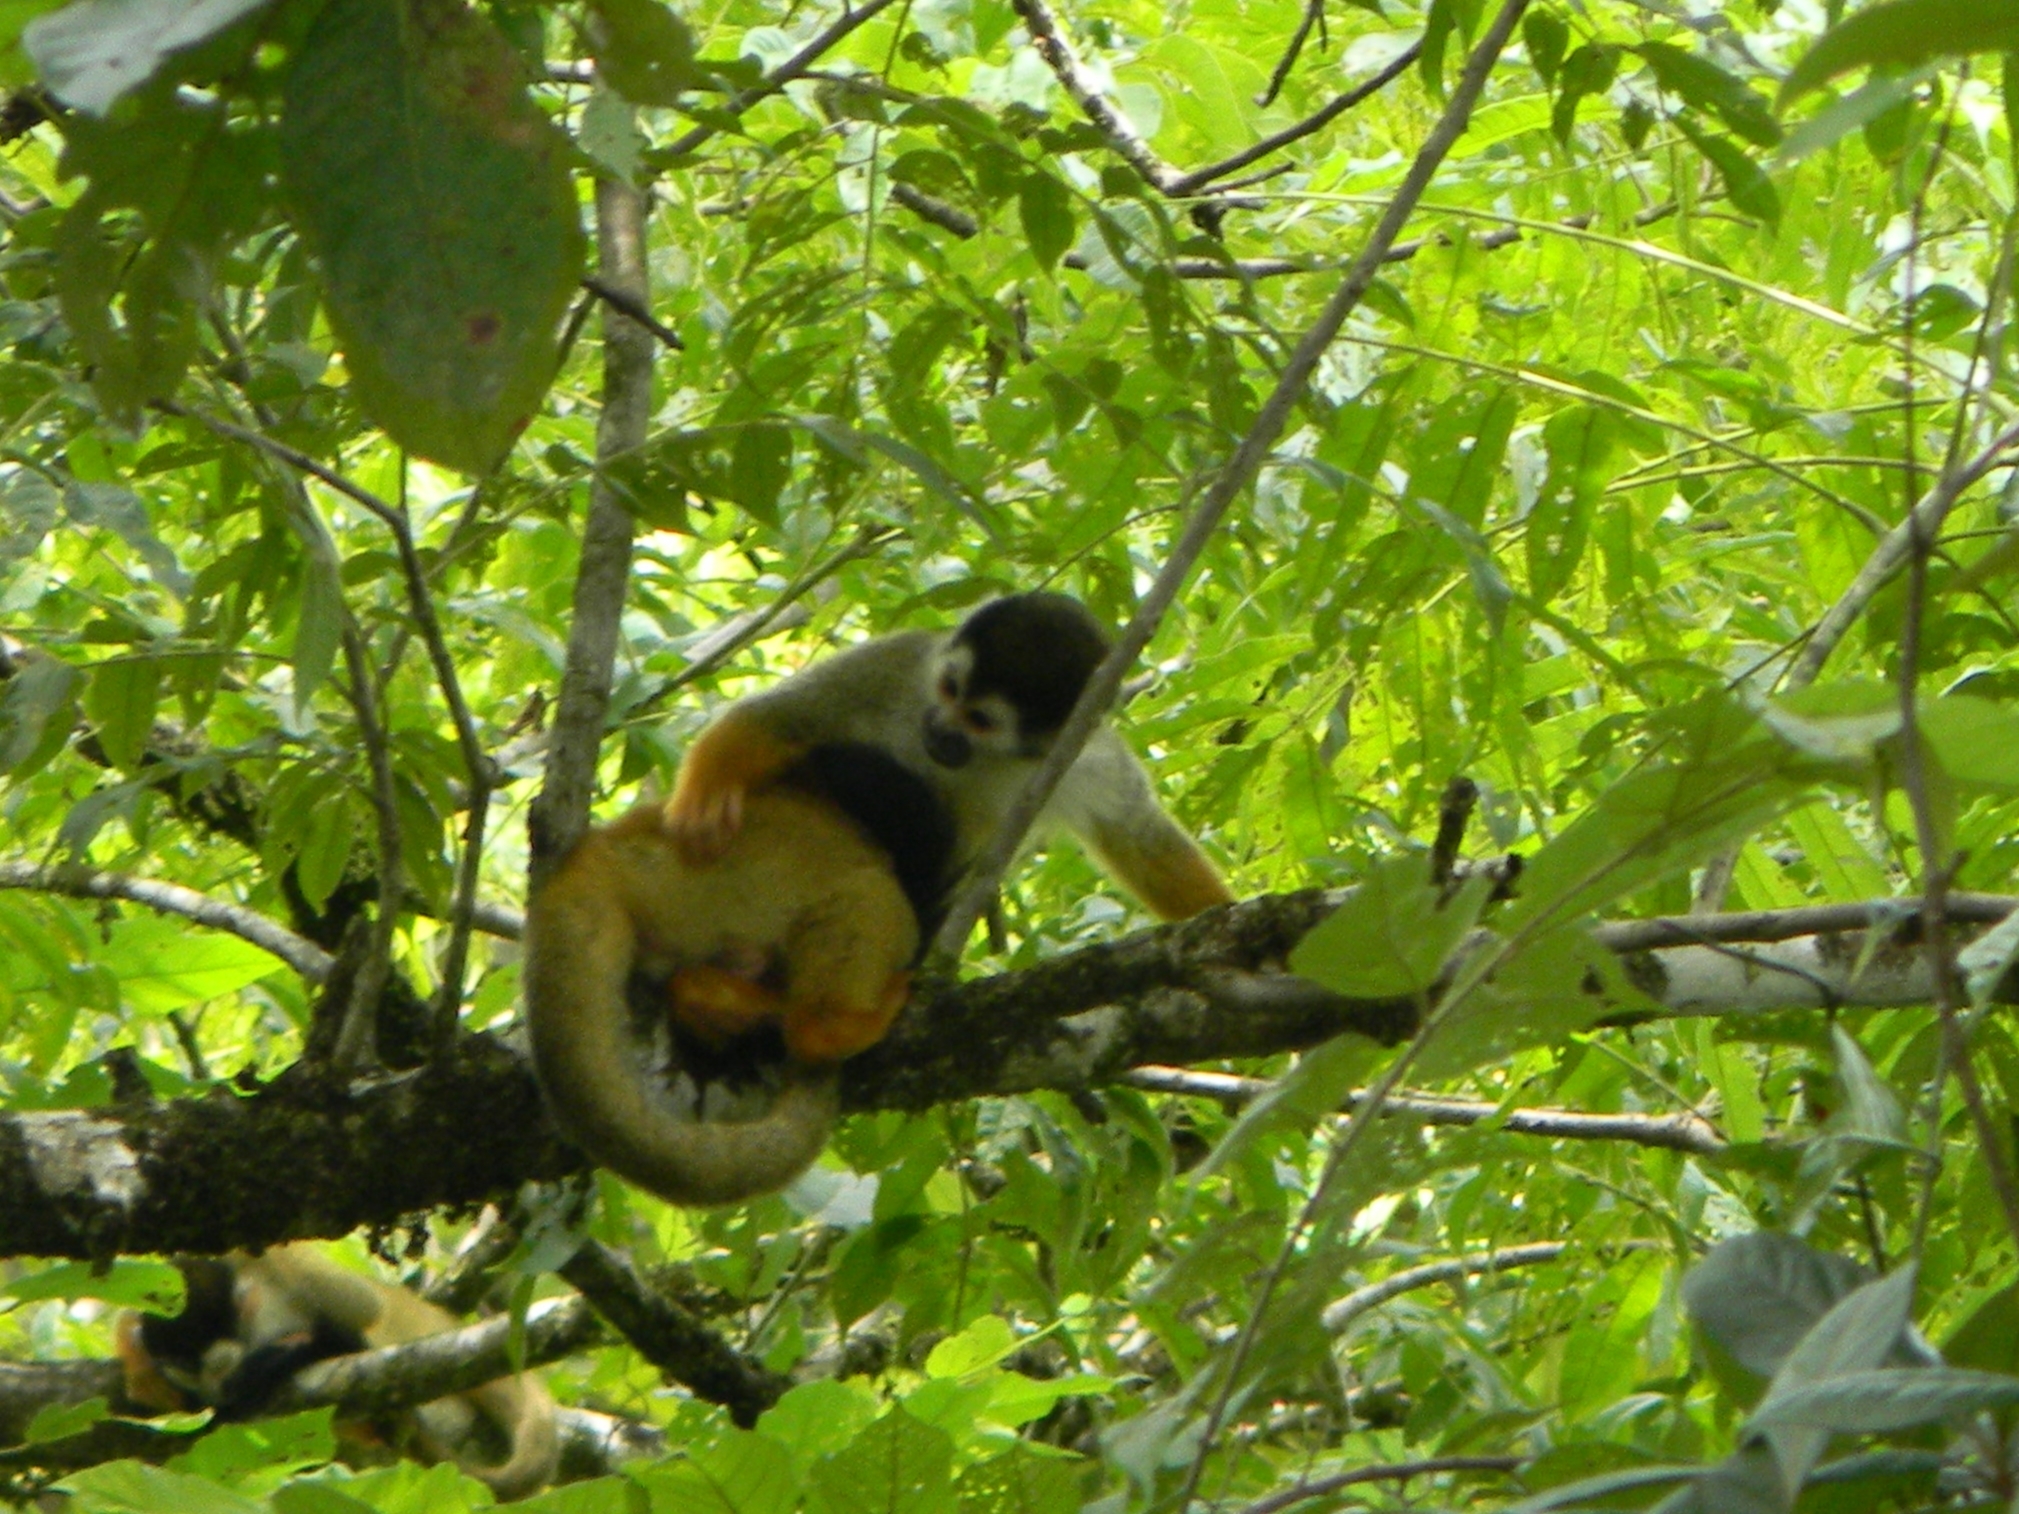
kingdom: Animalia
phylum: Chordata
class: Mammalia
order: Primates
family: Cebidae
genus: Saimiri
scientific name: Saimiri oerstedii
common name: Central american squirrel monkey
